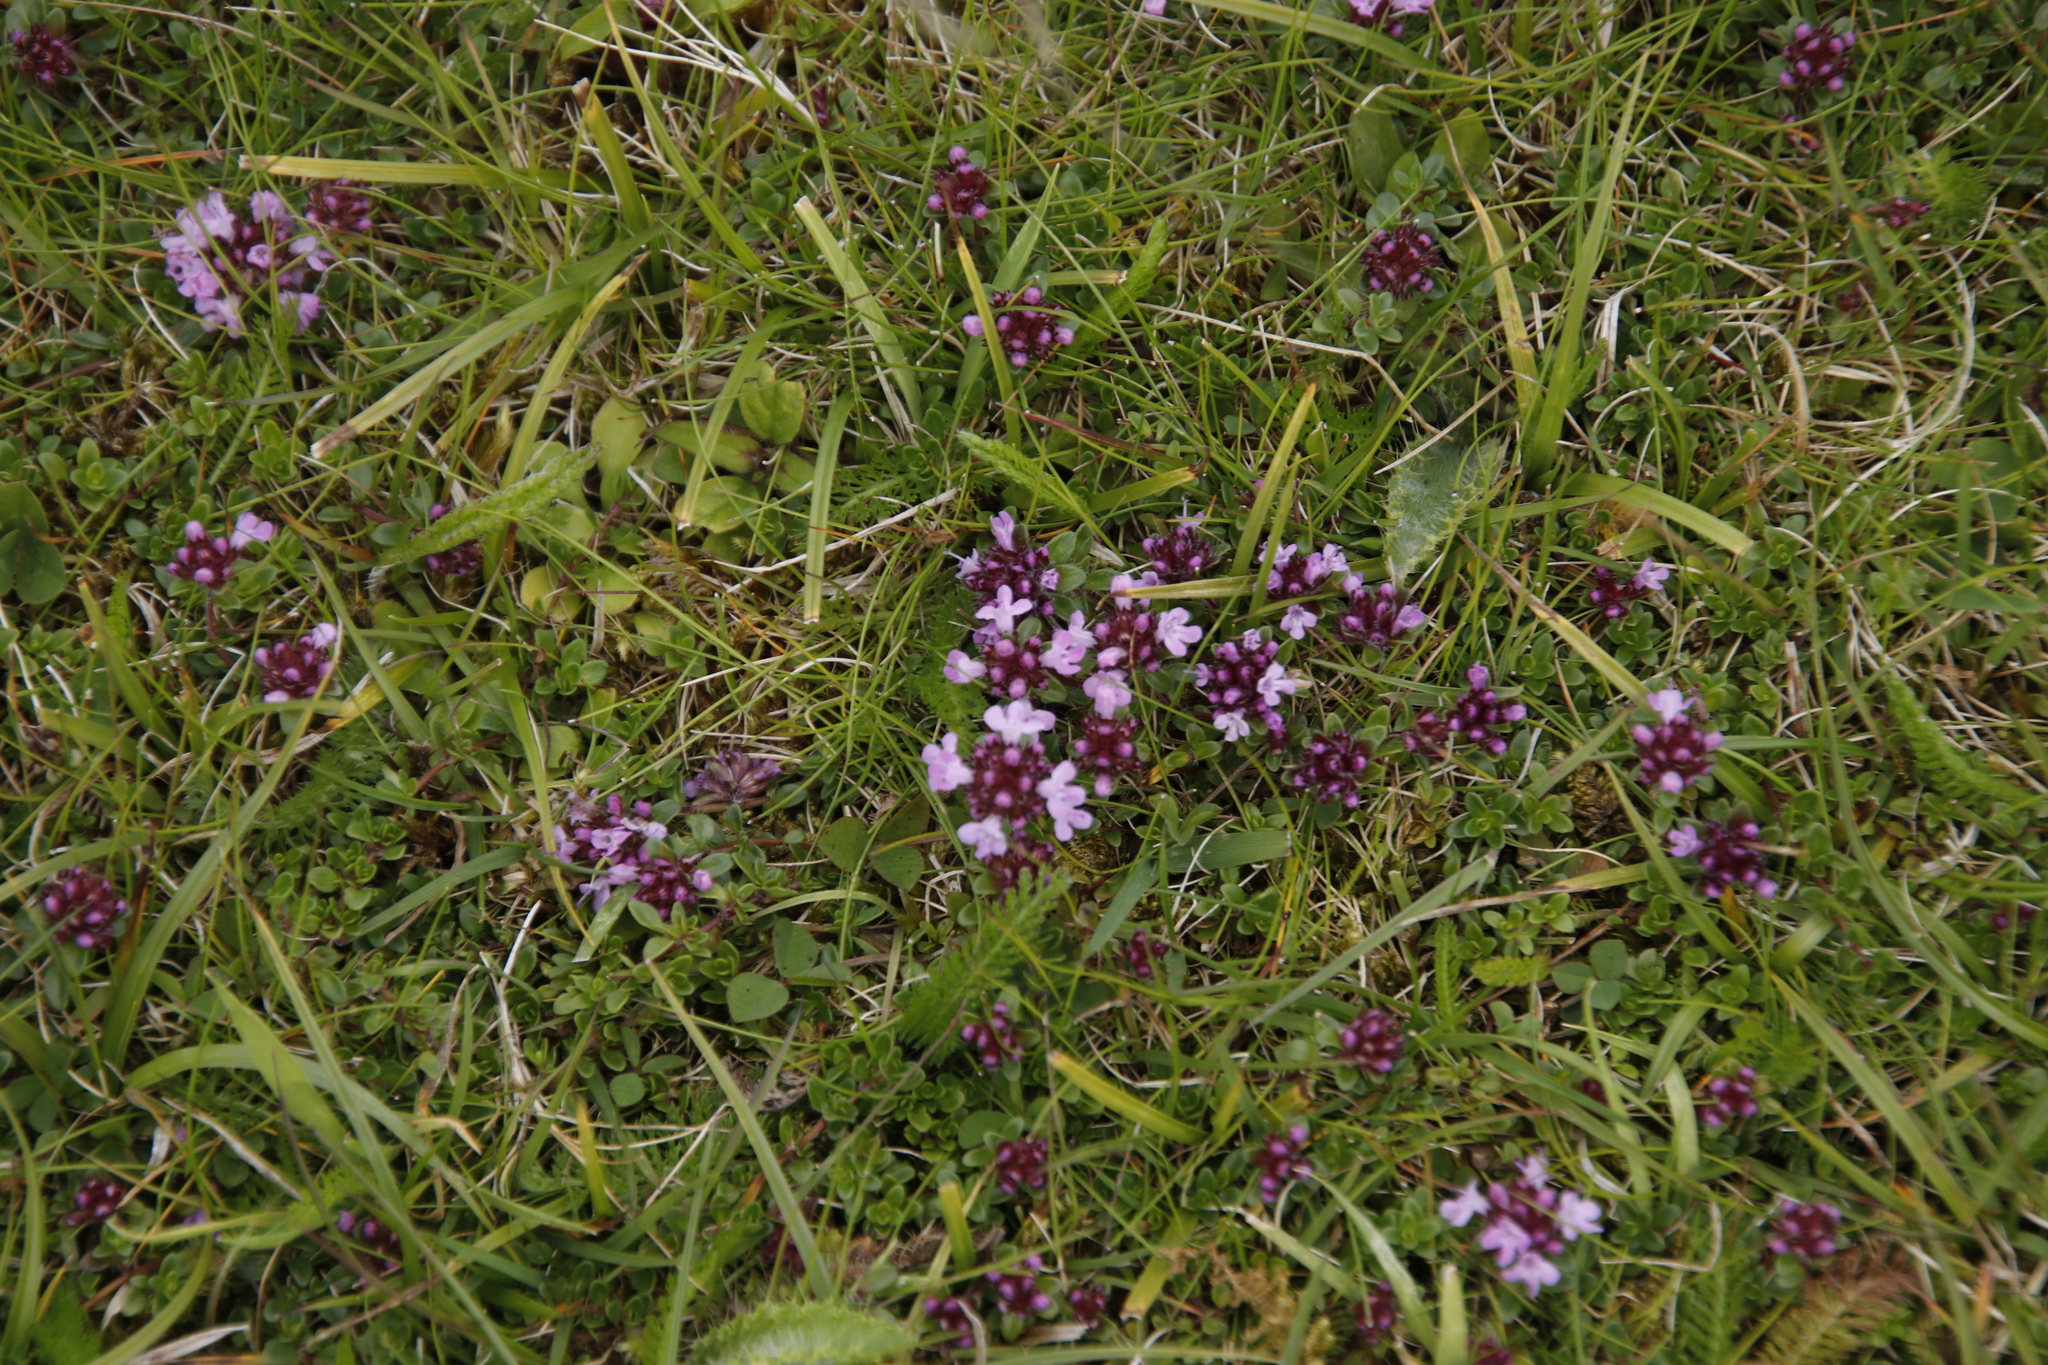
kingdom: Plantae
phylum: Tracheophyta
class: Magnoliopsida
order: Lamiales
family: Lamiaceae
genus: Thymus
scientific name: Thymus praecox
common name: Wild thyme
